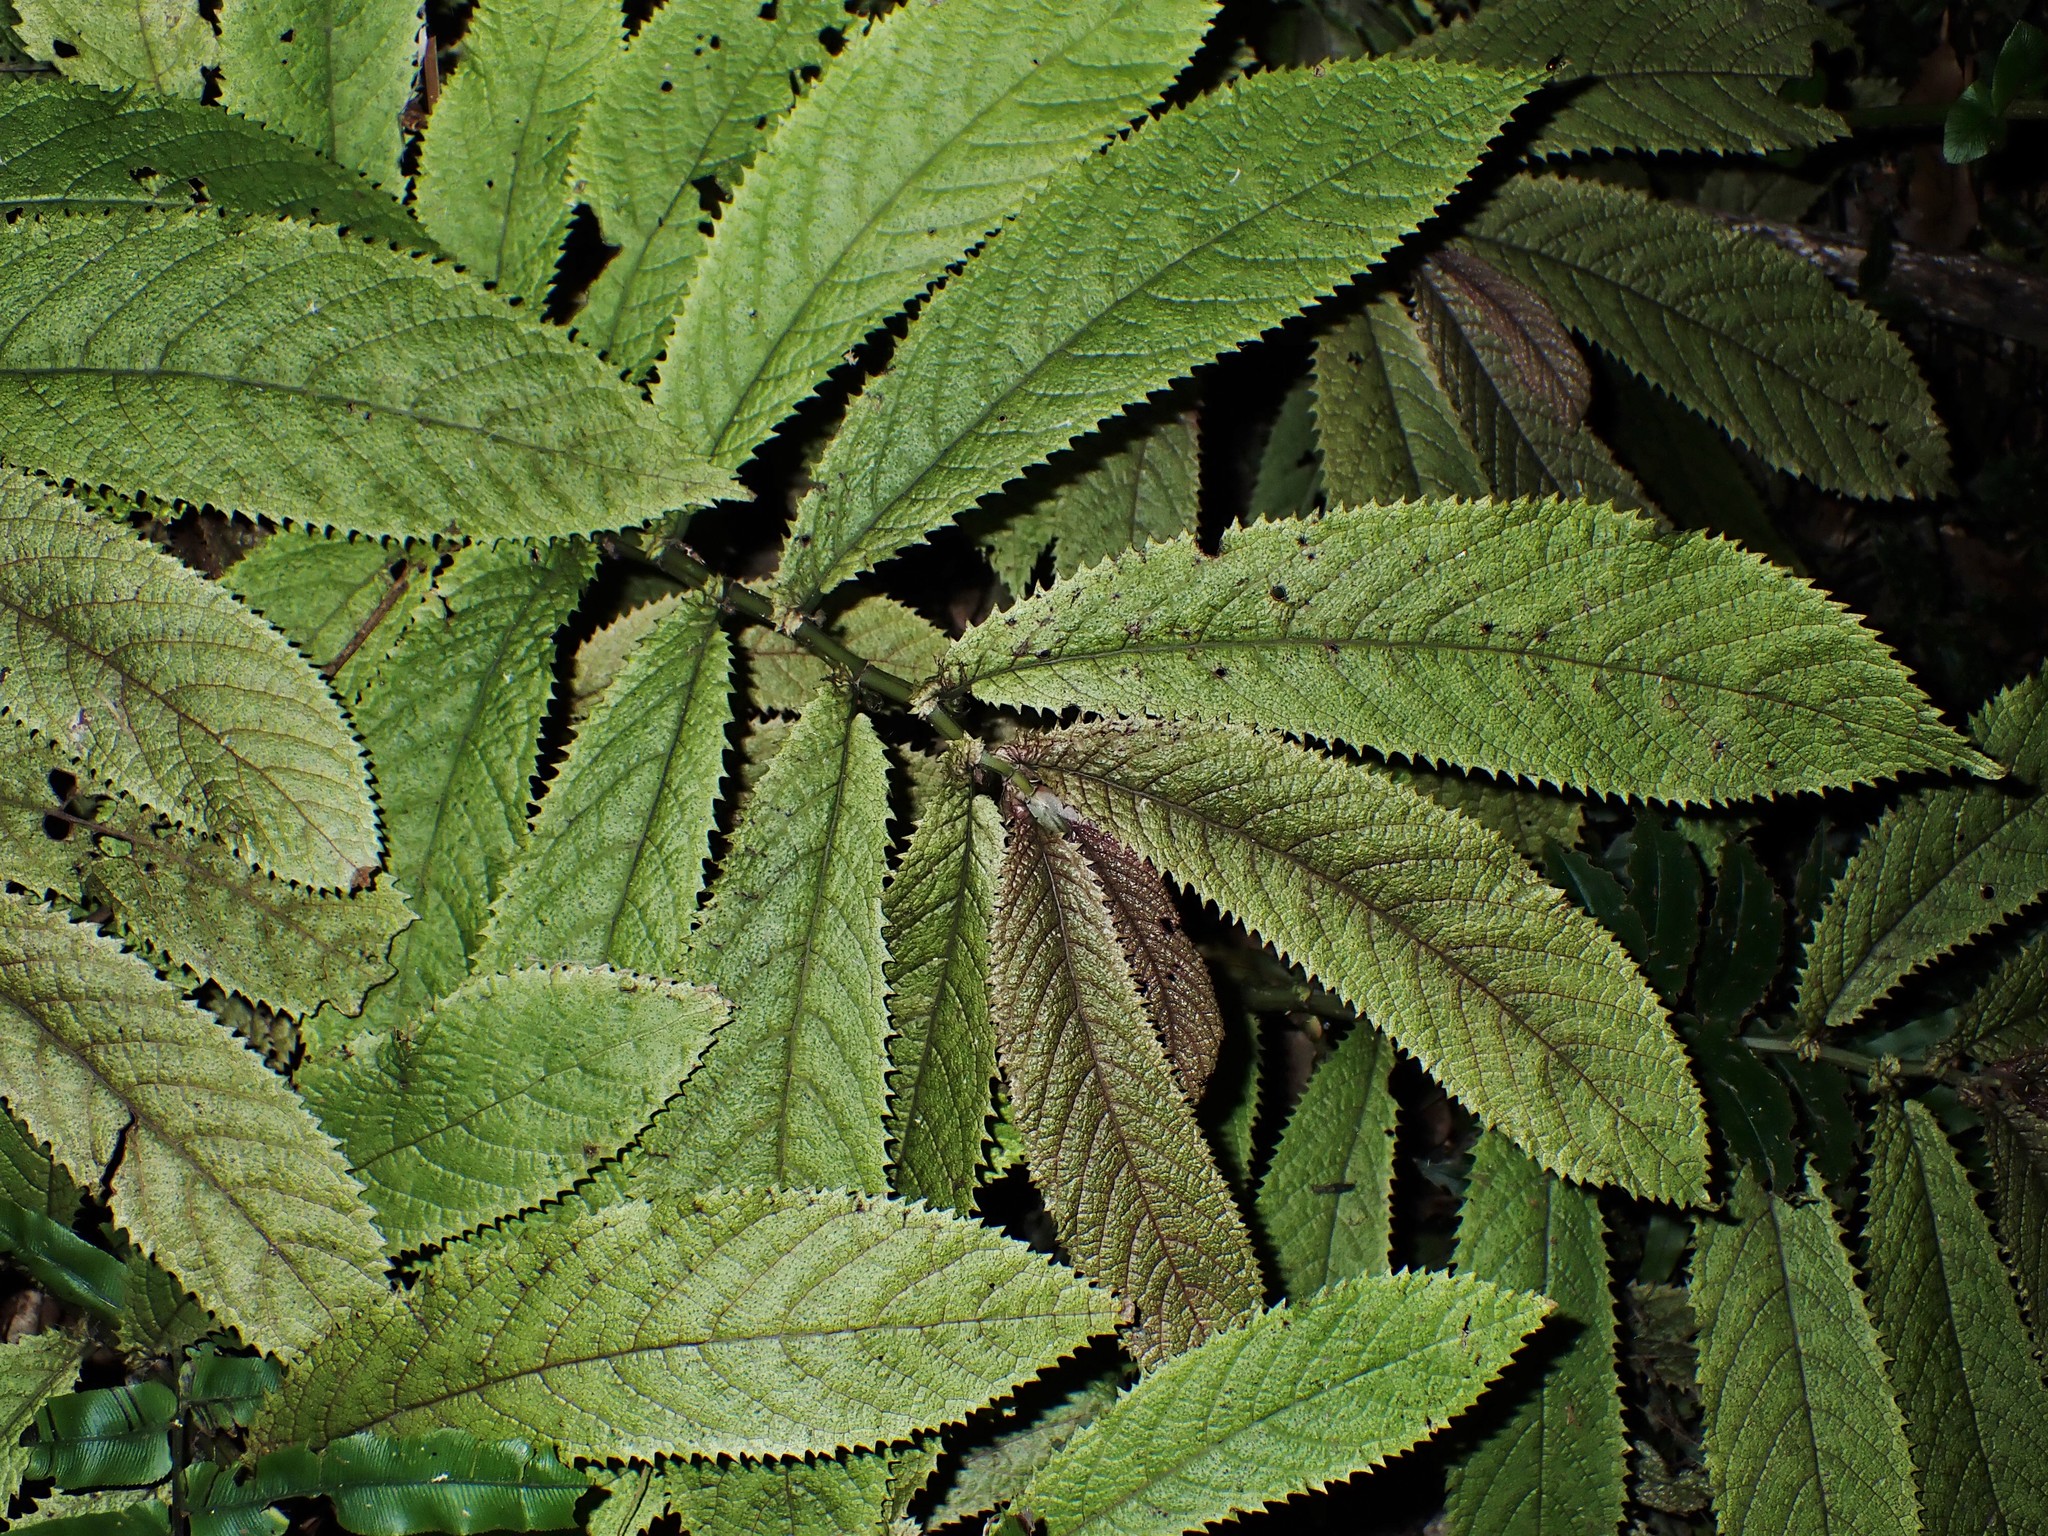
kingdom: Plantae
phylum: Tracheophyta
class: Magnoliopsida
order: Rosales
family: Urticaceae
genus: Elatostema
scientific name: Elatostema rugosum
